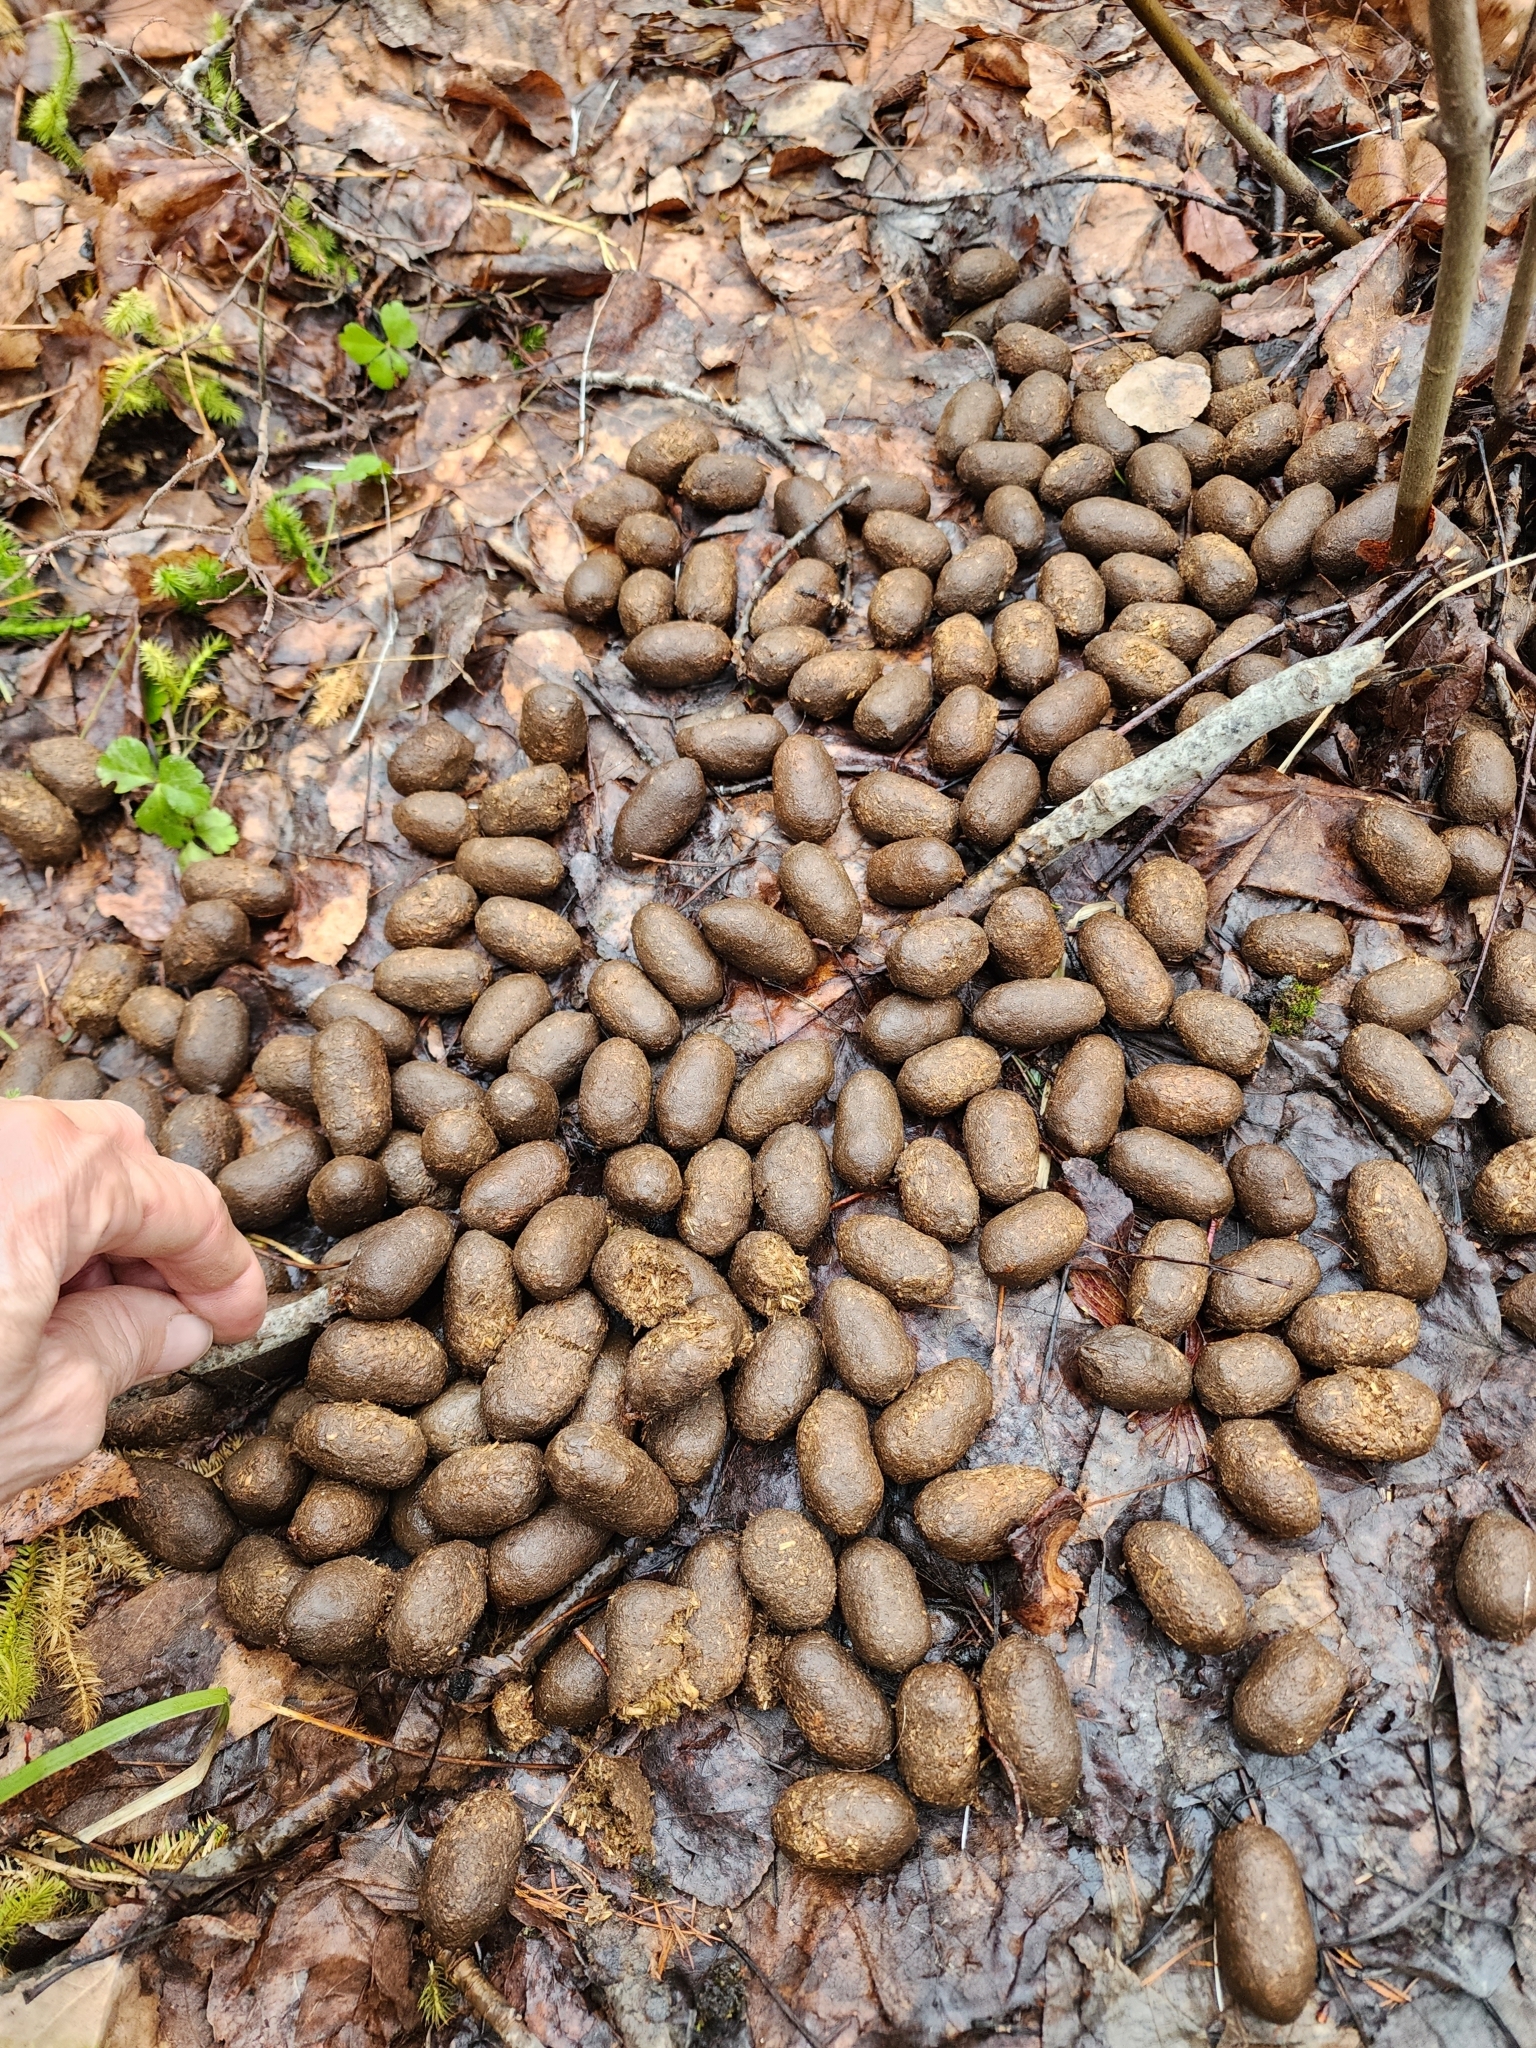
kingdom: Animalia
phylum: Chordata
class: Mammalia
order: Artiodactyla
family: Cervidae
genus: Alces
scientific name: Alces alces
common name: Moose
